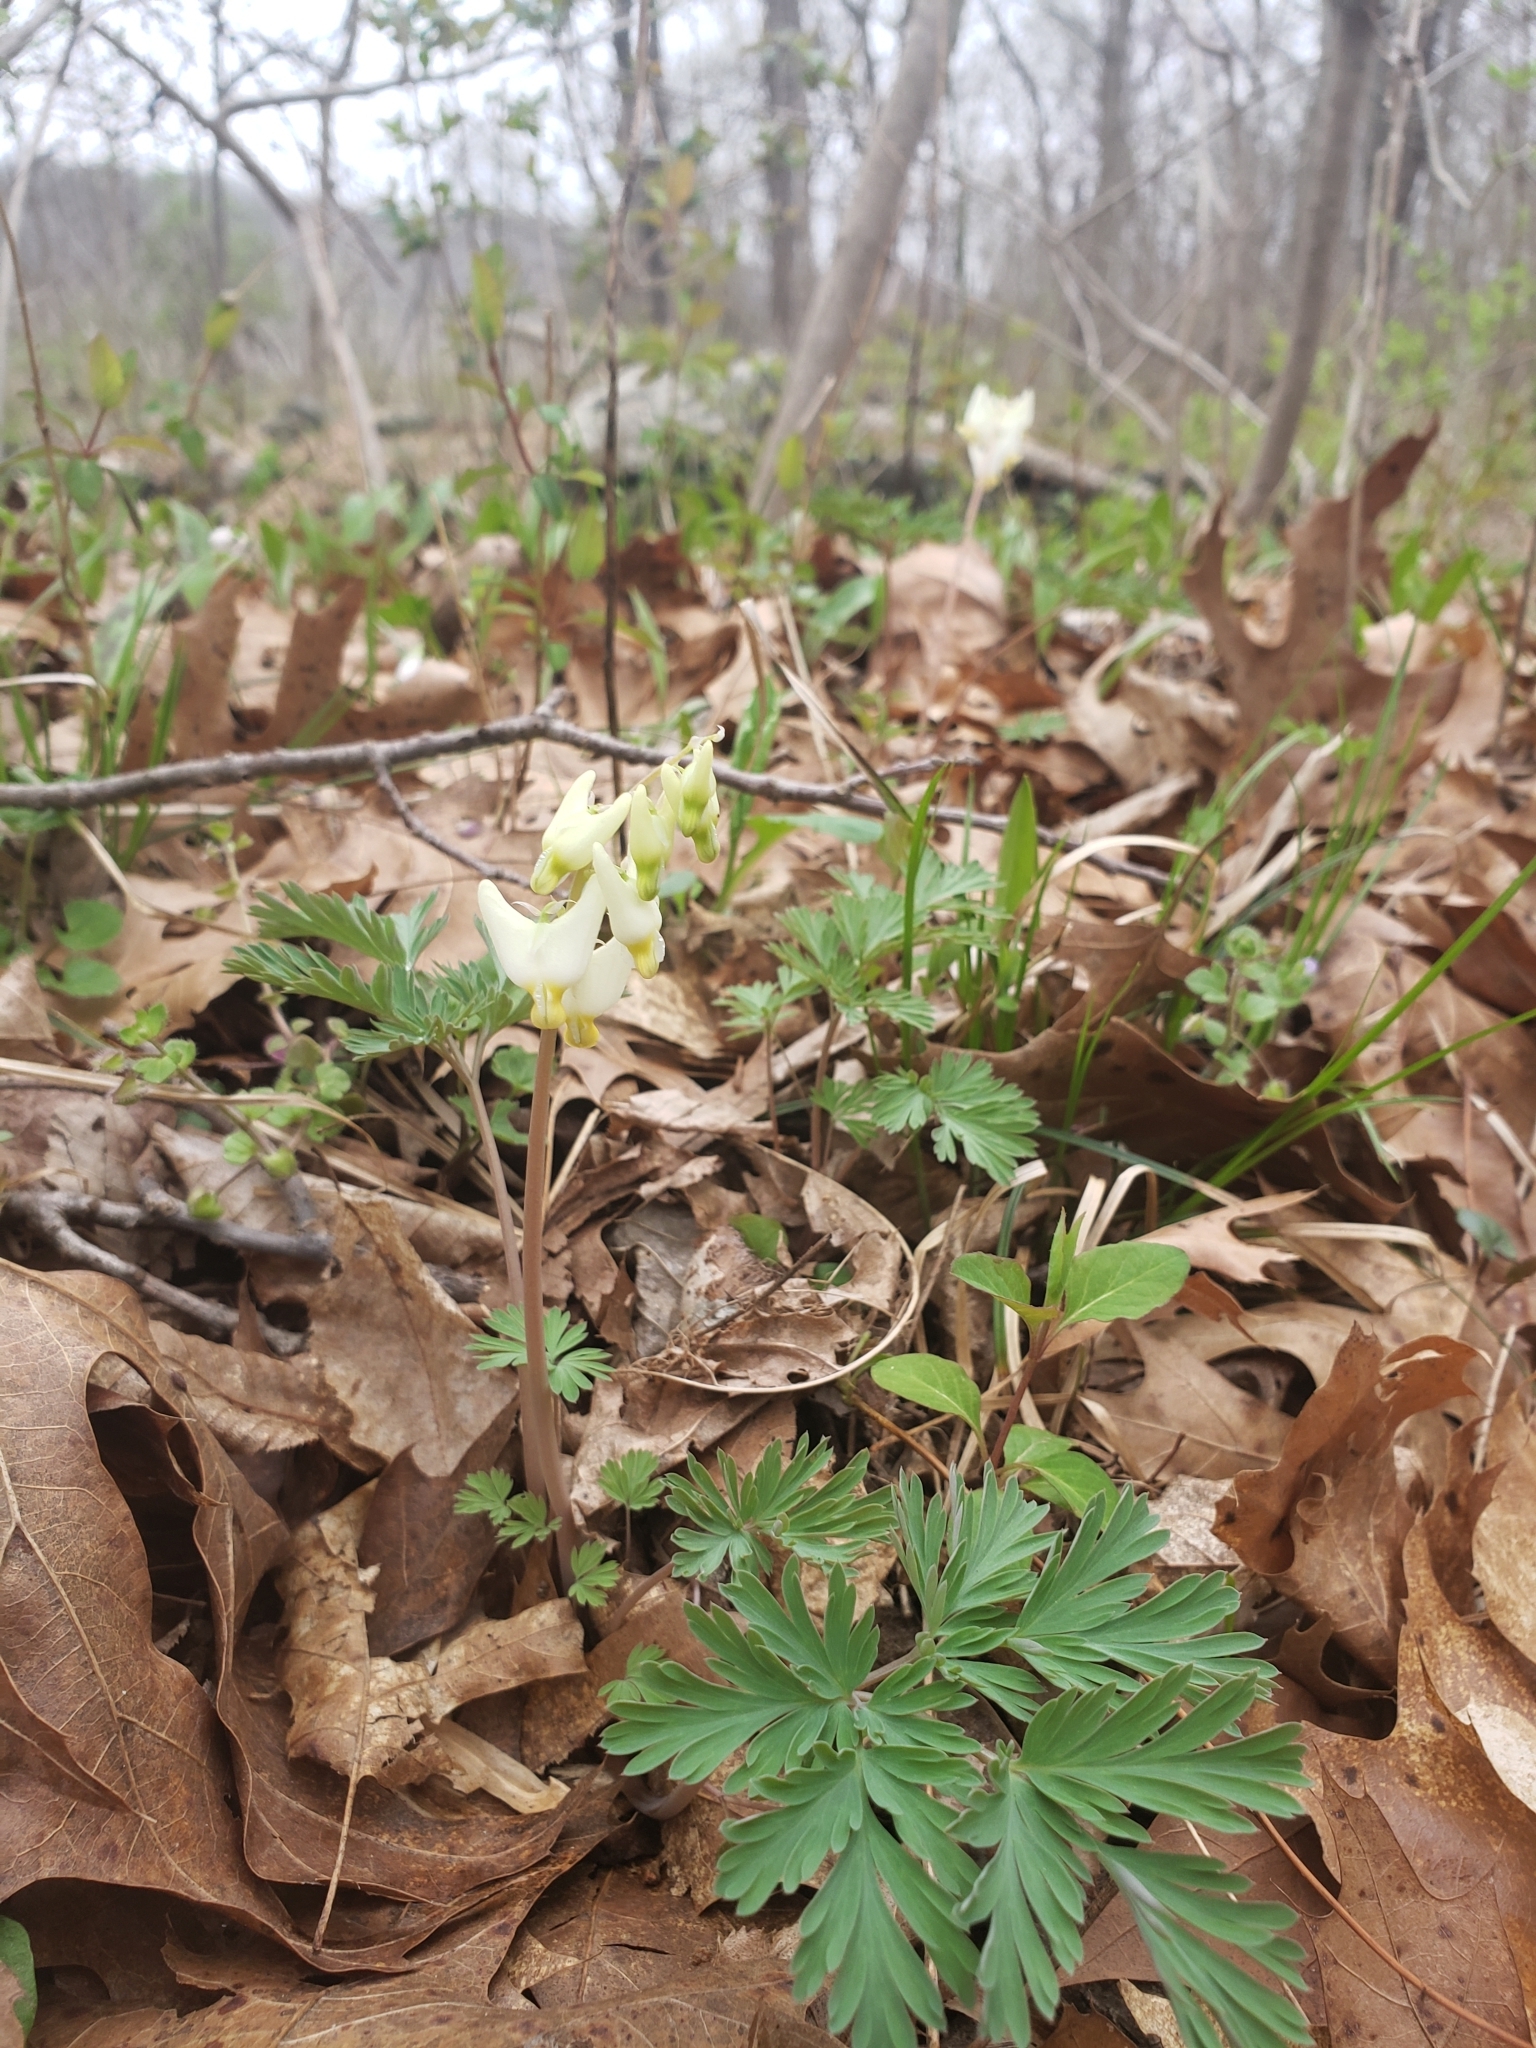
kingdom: Plantae
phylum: Tracheophyta
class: Magnoliopsida
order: Ranunculales
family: Papaveraceae
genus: Dicentra
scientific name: Dicentra cucullaria
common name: Dutchman's breeches
